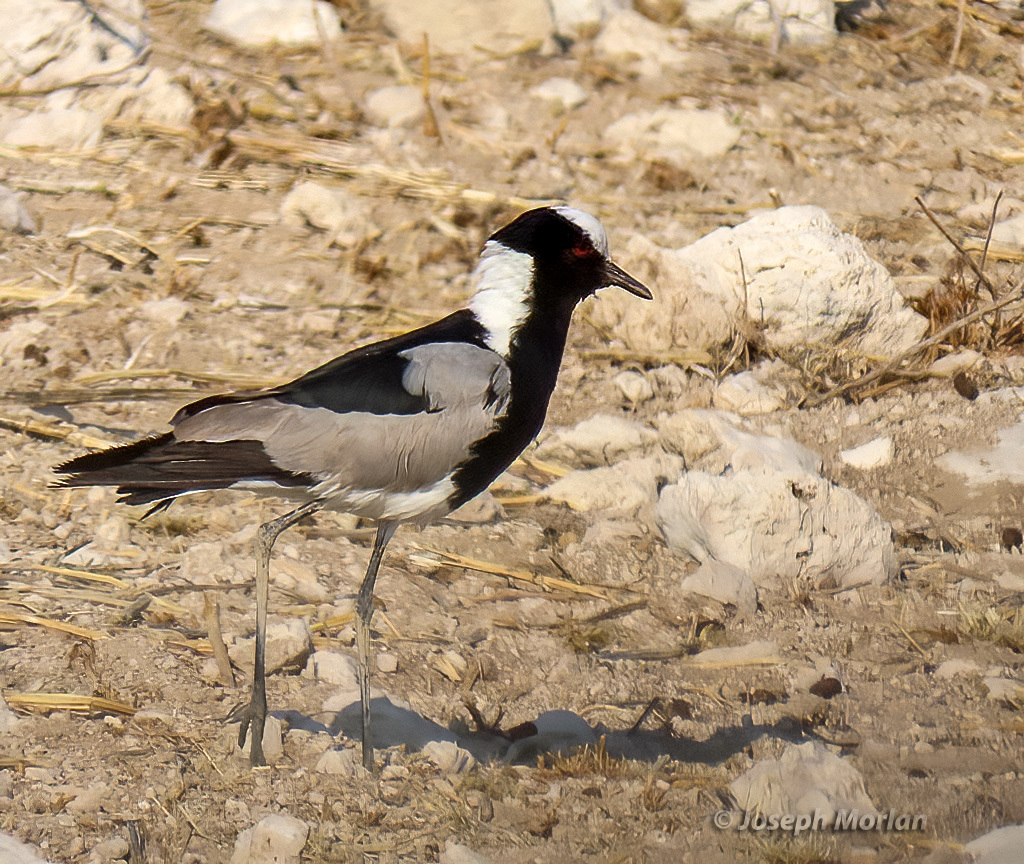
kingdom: Animalia
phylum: Chordata
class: Aves
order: Charadriiformes
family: Charadriidae
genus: Vanellus
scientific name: Vanellus armatus
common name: Blacksmith lapwing
